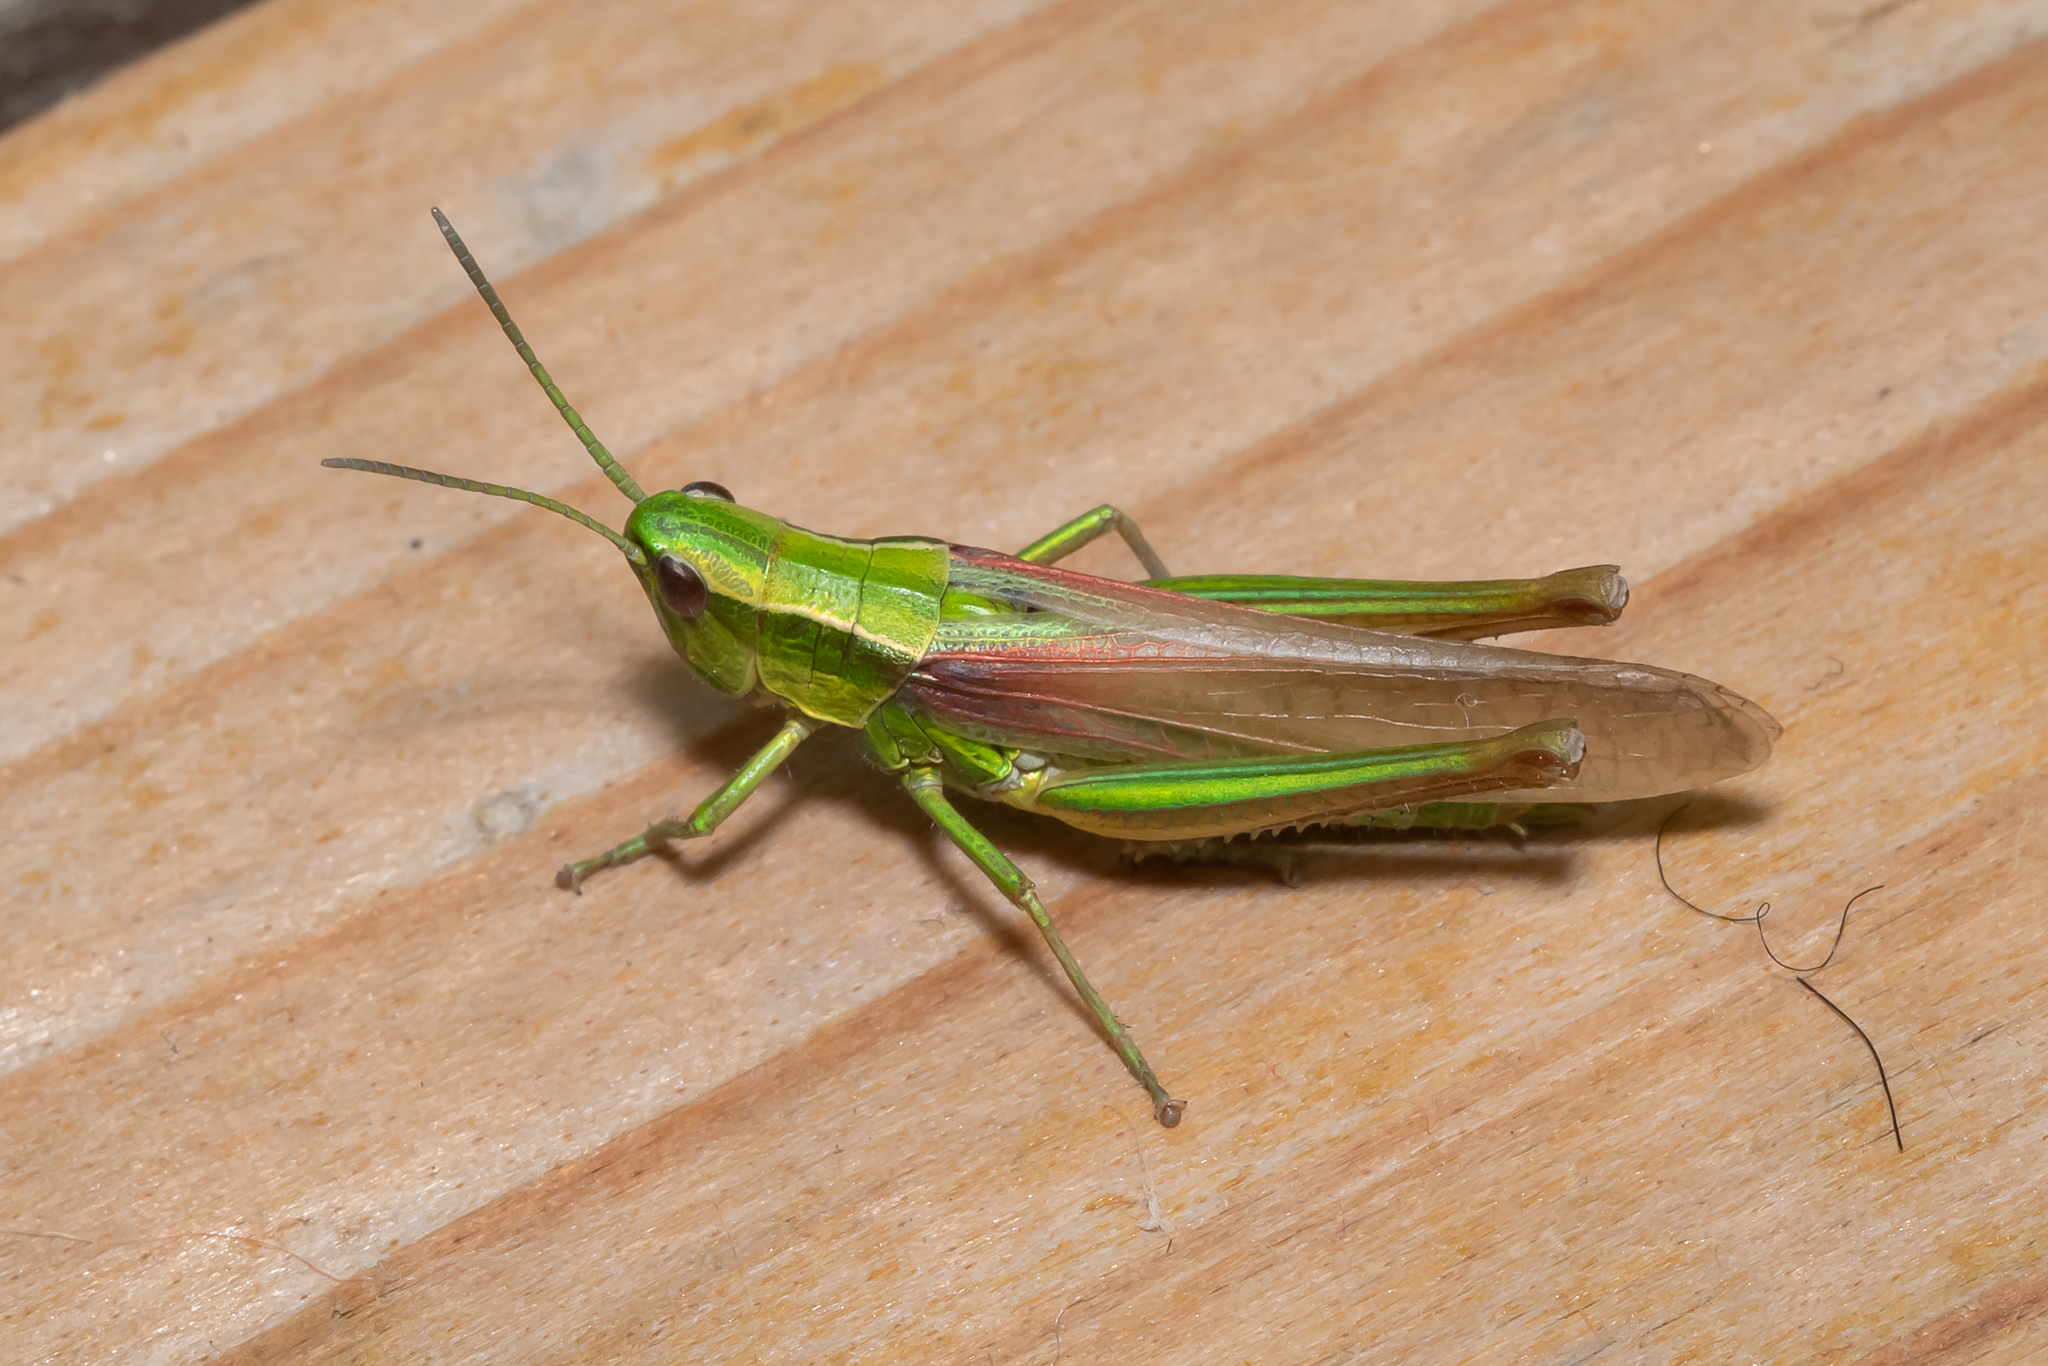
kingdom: Animalia
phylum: Arthropoda
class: Insecta
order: Orthoptera
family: Acrididae
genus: Euthystira
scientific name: Euthystira brachyptera
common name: Small gold grasshopper
